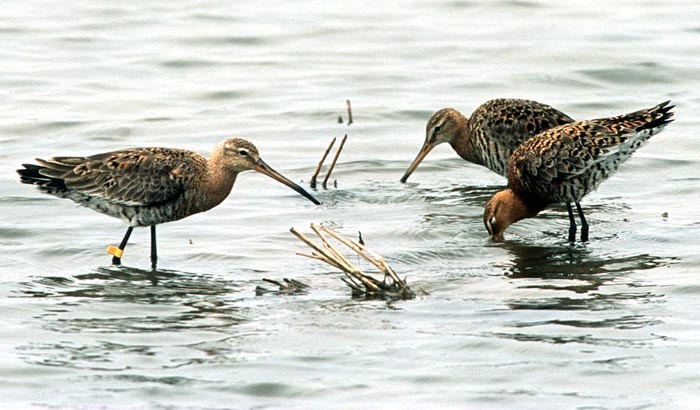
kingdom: Animalia
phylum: Chordata
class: Aves
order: Charadriiformes
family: Scolopacidae
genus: Limosa
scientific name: Limosa limosa
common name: Black-tailed godwit
